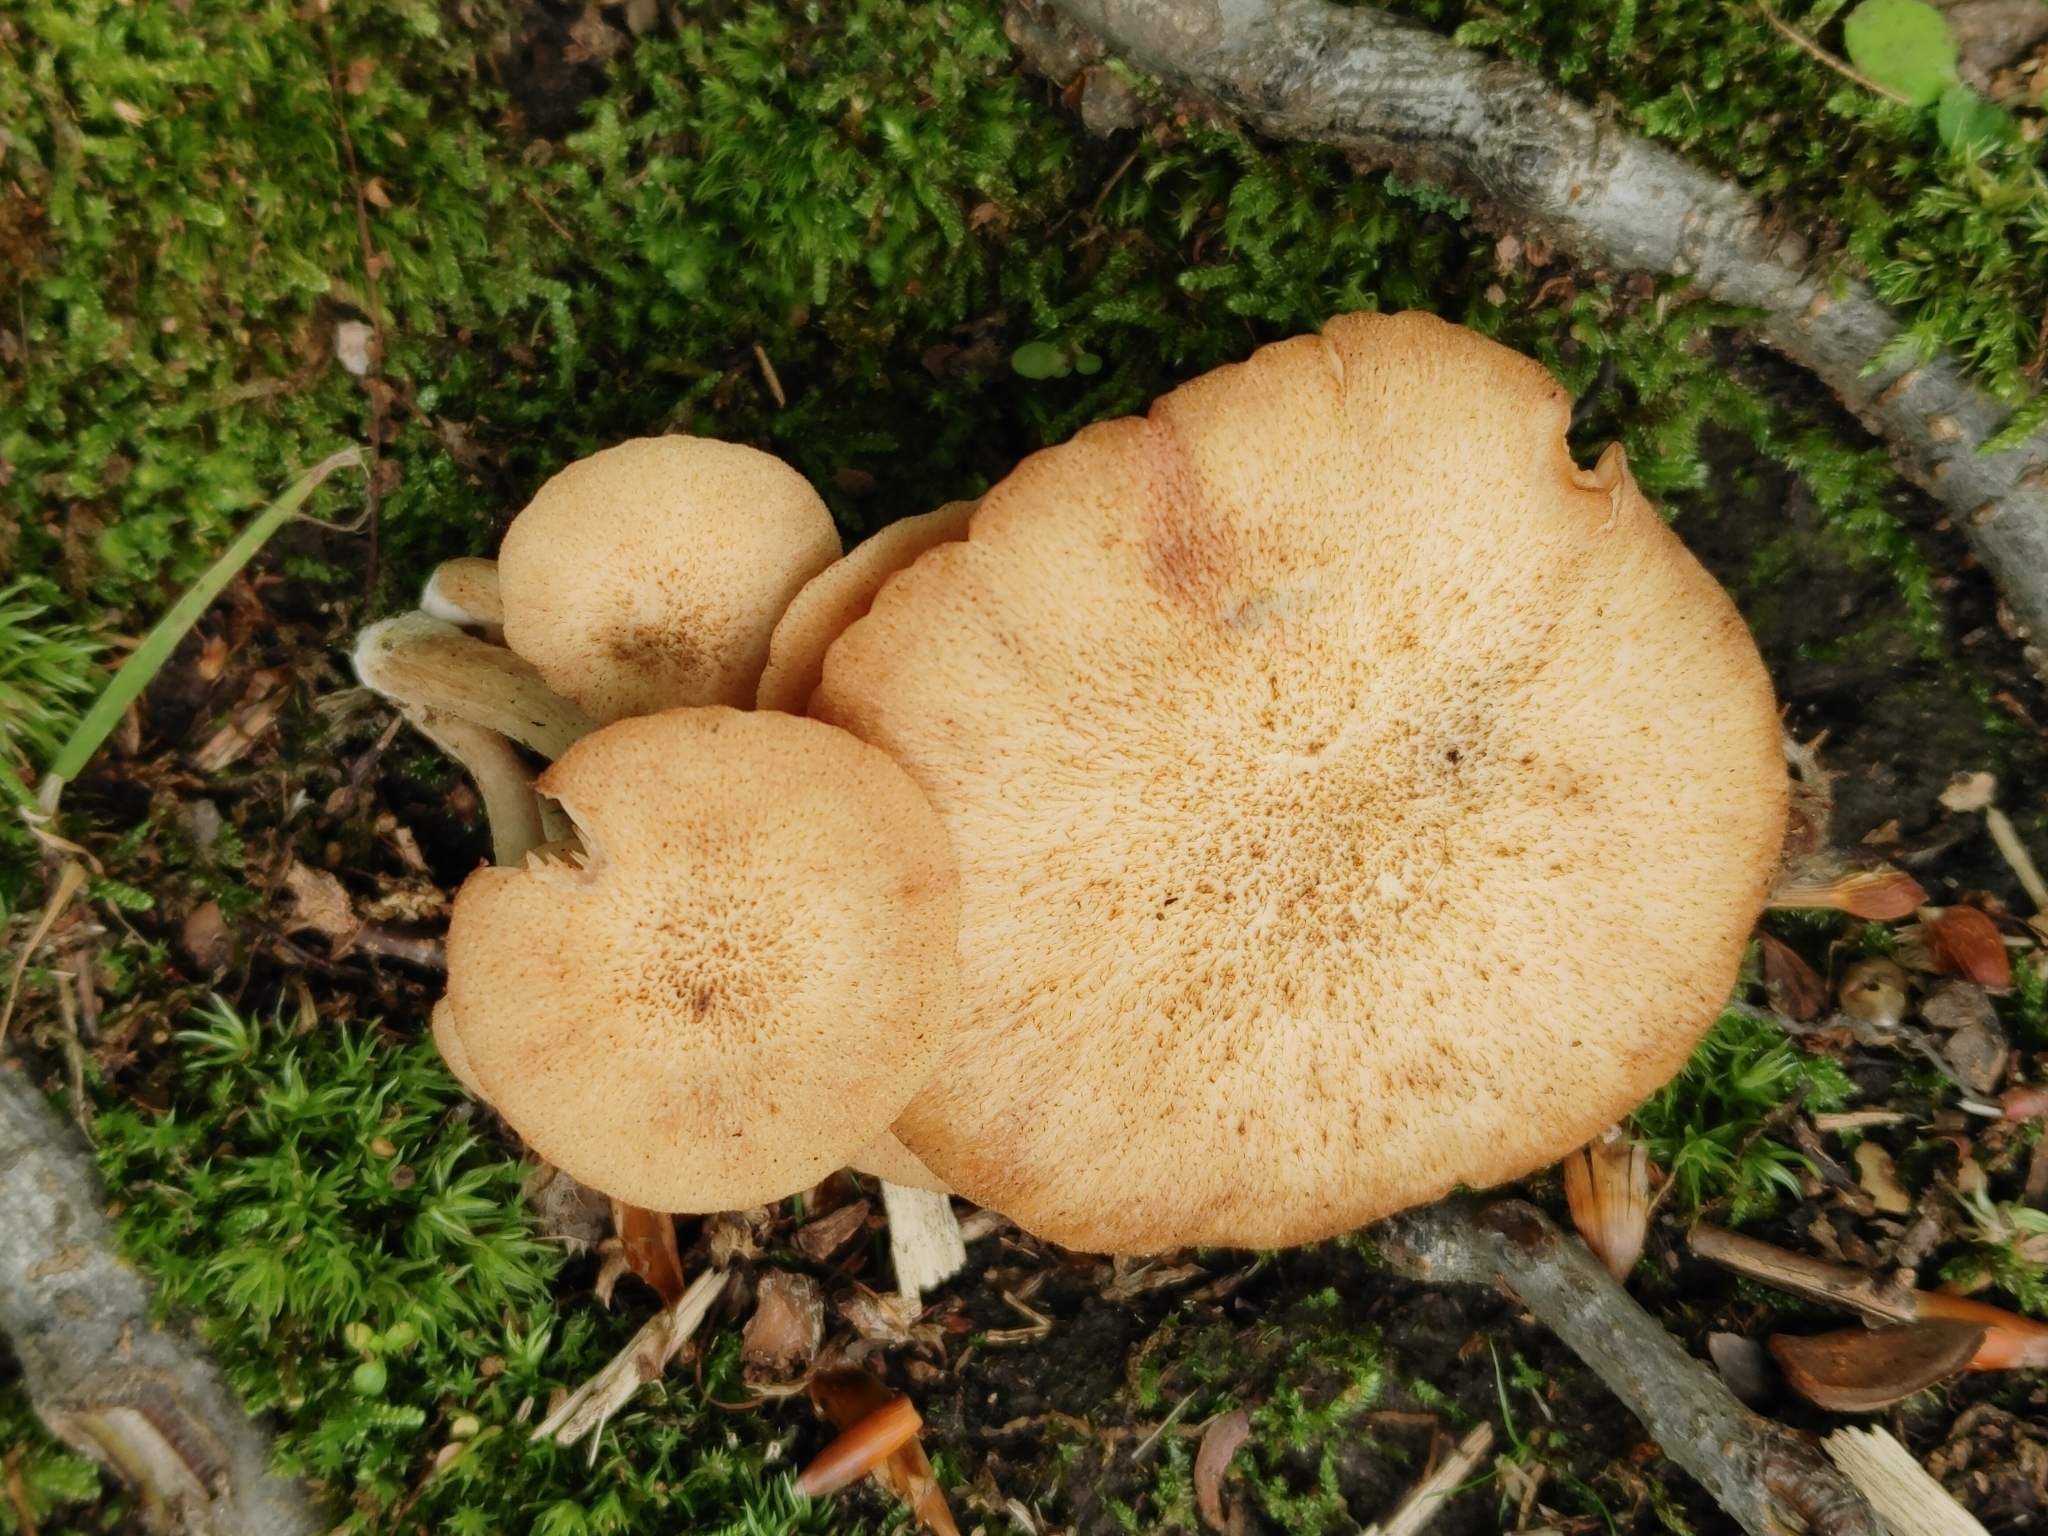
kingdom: Fungi
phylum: Basidiomycota
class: Agaricomycetes
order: Agaricales
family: Physalacriaceae
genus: Desarmillaria
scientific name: Desarmillaria caespitosa
